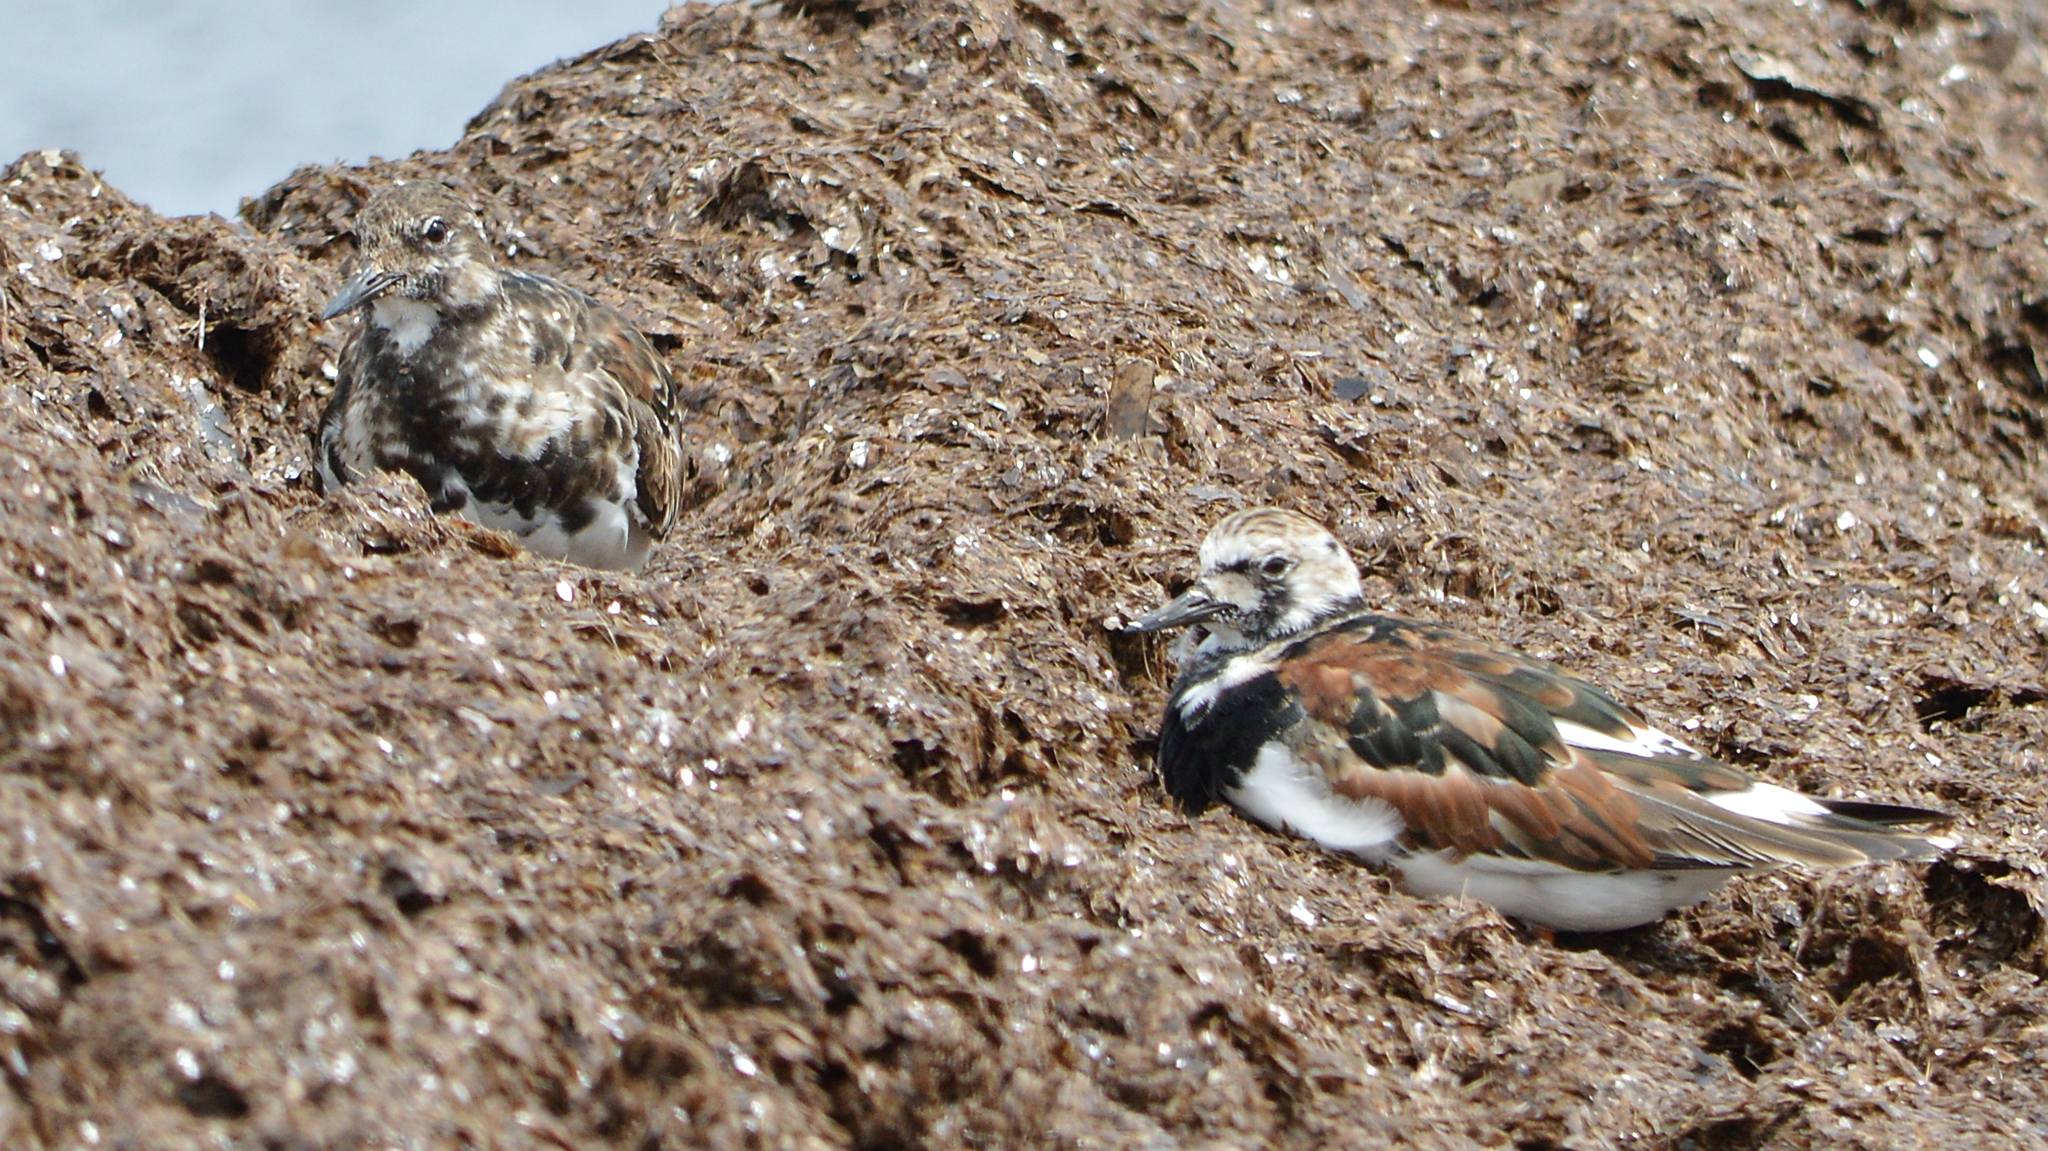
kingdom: Animalia
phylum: Chordata
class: Aves
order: Charadriiformes
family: Scolopacidae
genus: Arenaria
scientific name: Arenaria interpres
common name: Ruddy turnstone
